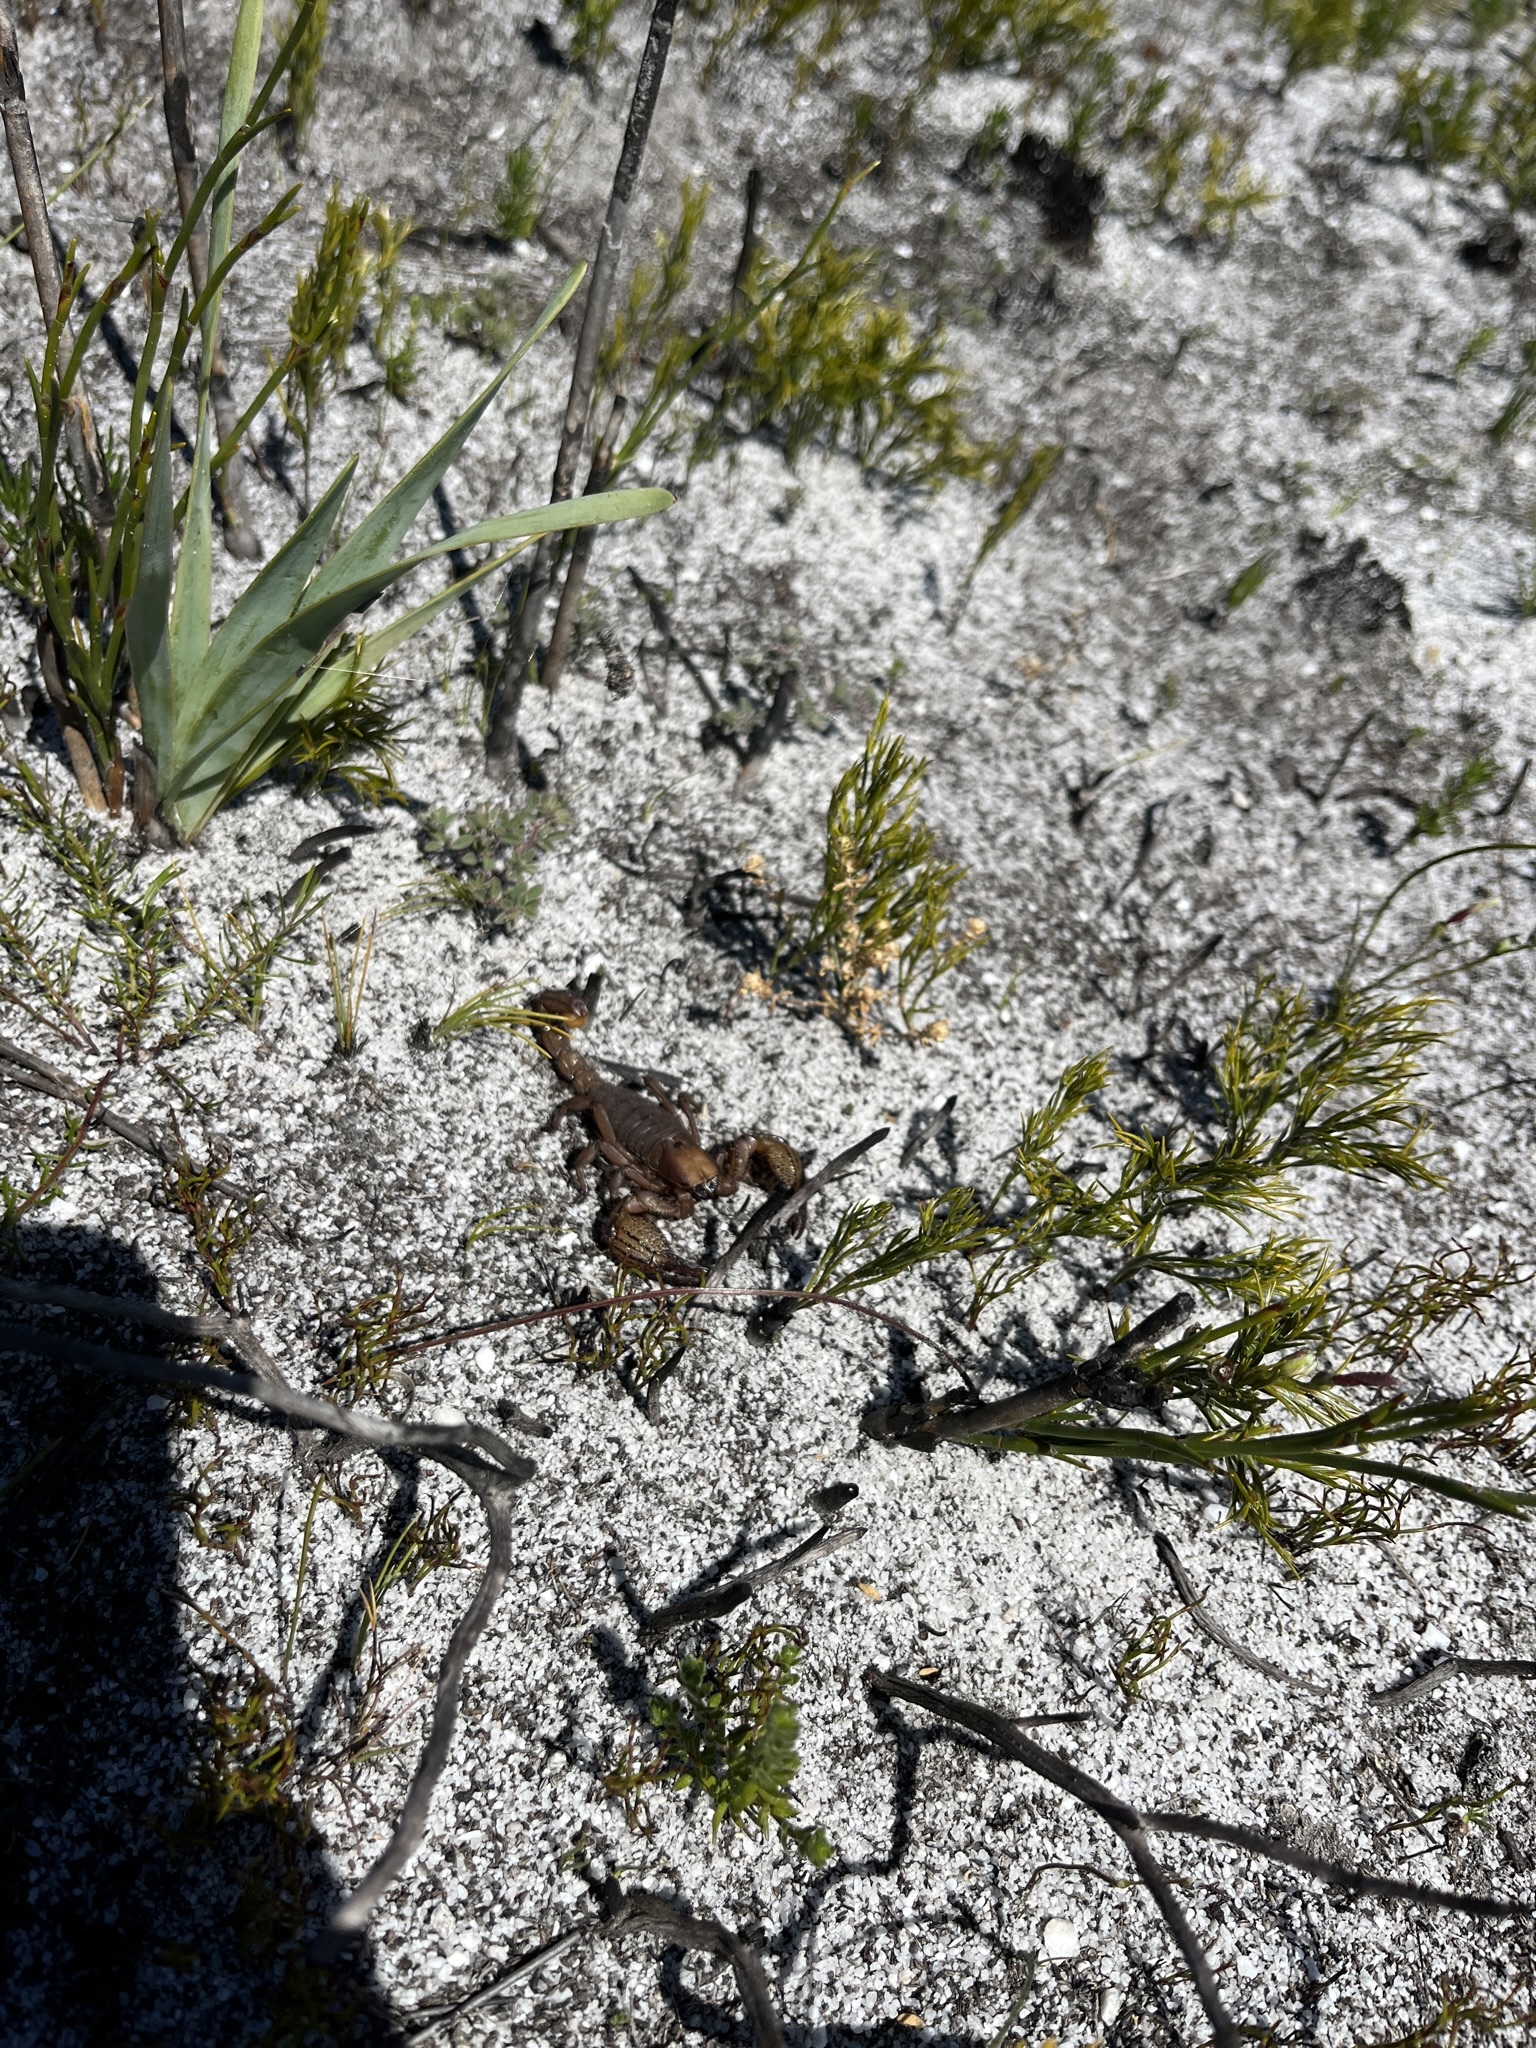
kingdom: Animalia
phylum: Arthropoda
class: Arachnida
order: Scorpiones
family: Scorpionidae
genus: Opistophthalmus
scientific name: Opistophthalmus macer
